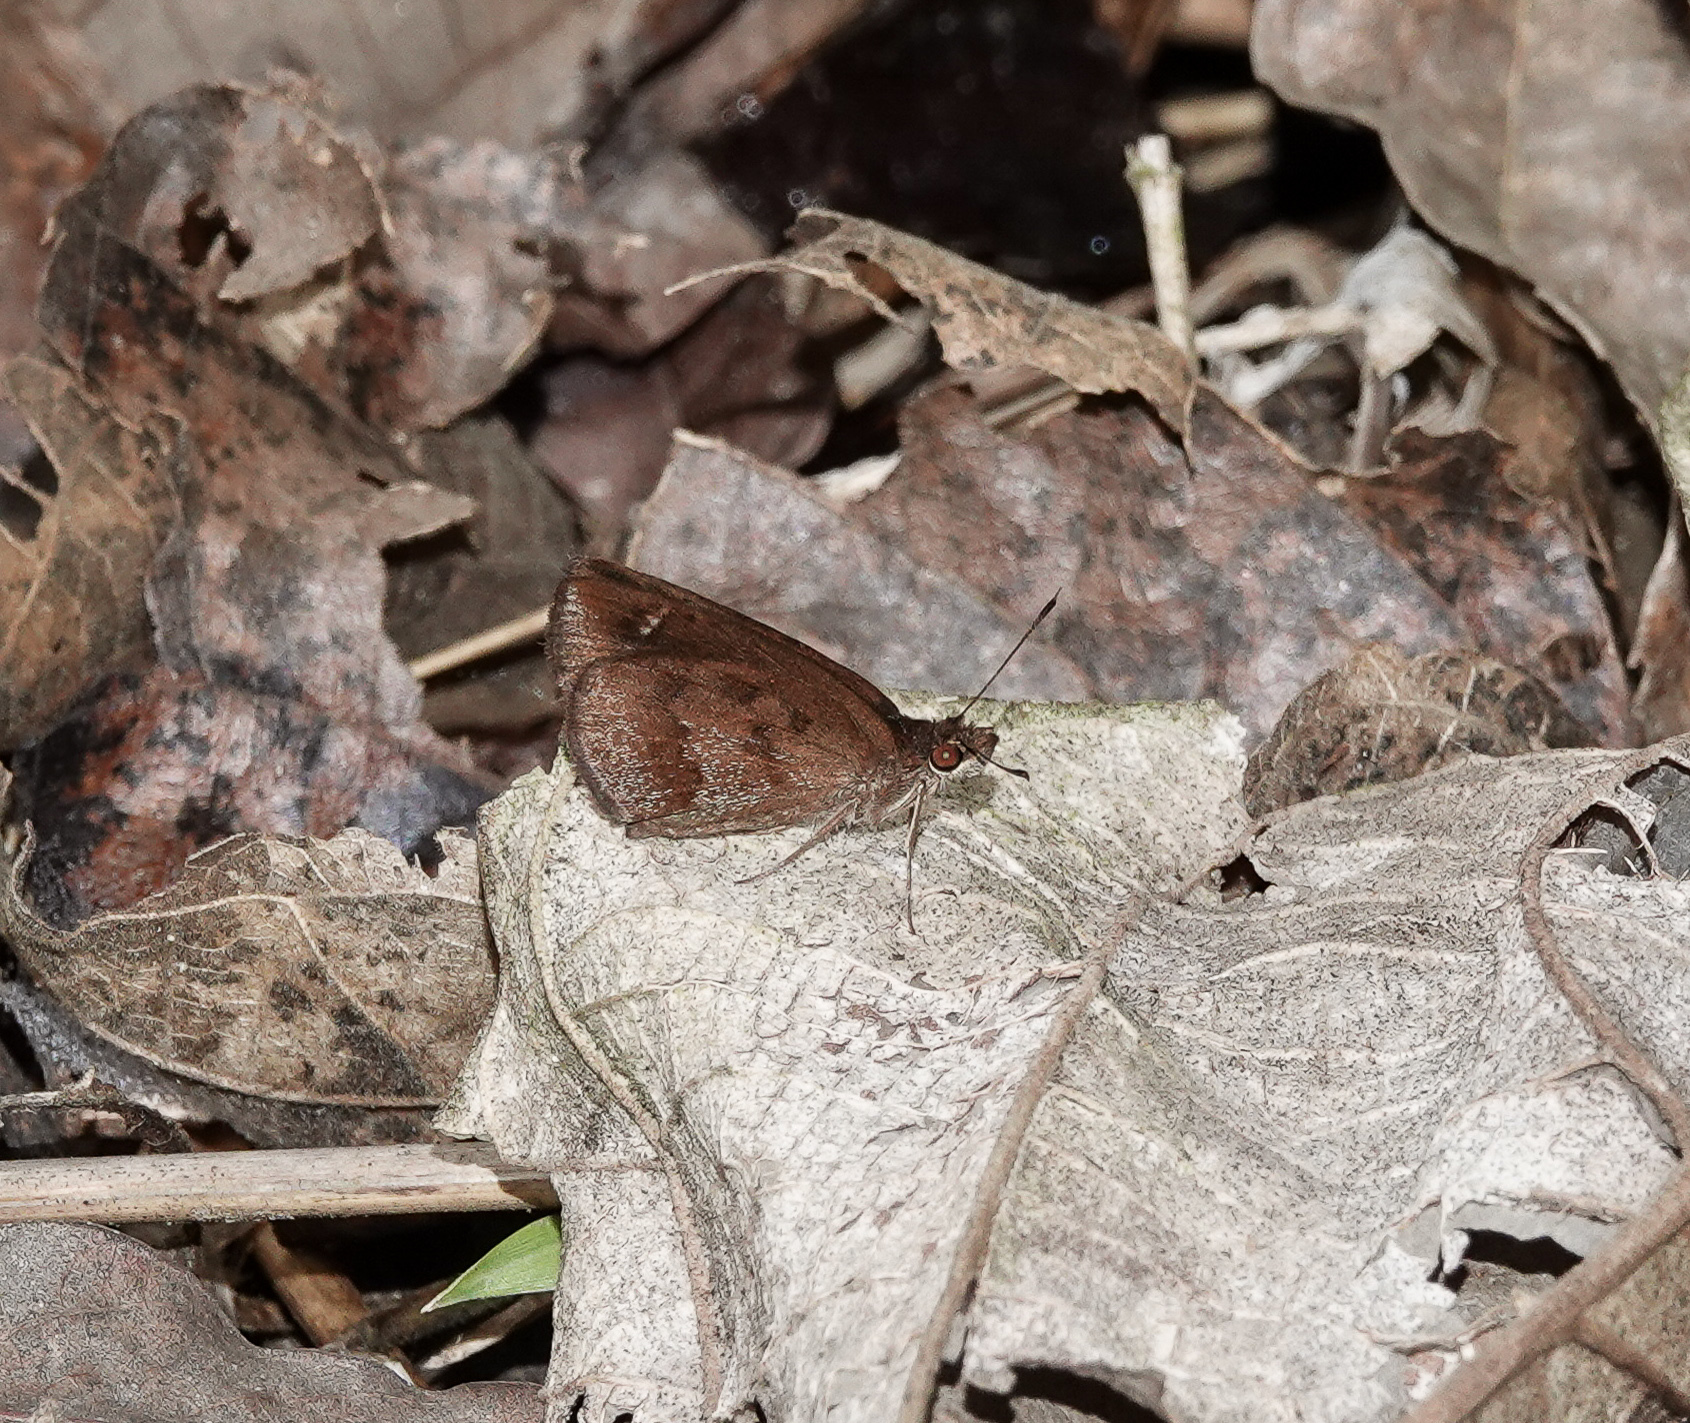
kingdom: Animalia
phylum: Arthropoda
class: Insecta
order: Lepidoptera
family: Hesperiidae
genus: Astictopterus
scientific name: Astictopterus jama
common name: Forest hopper
